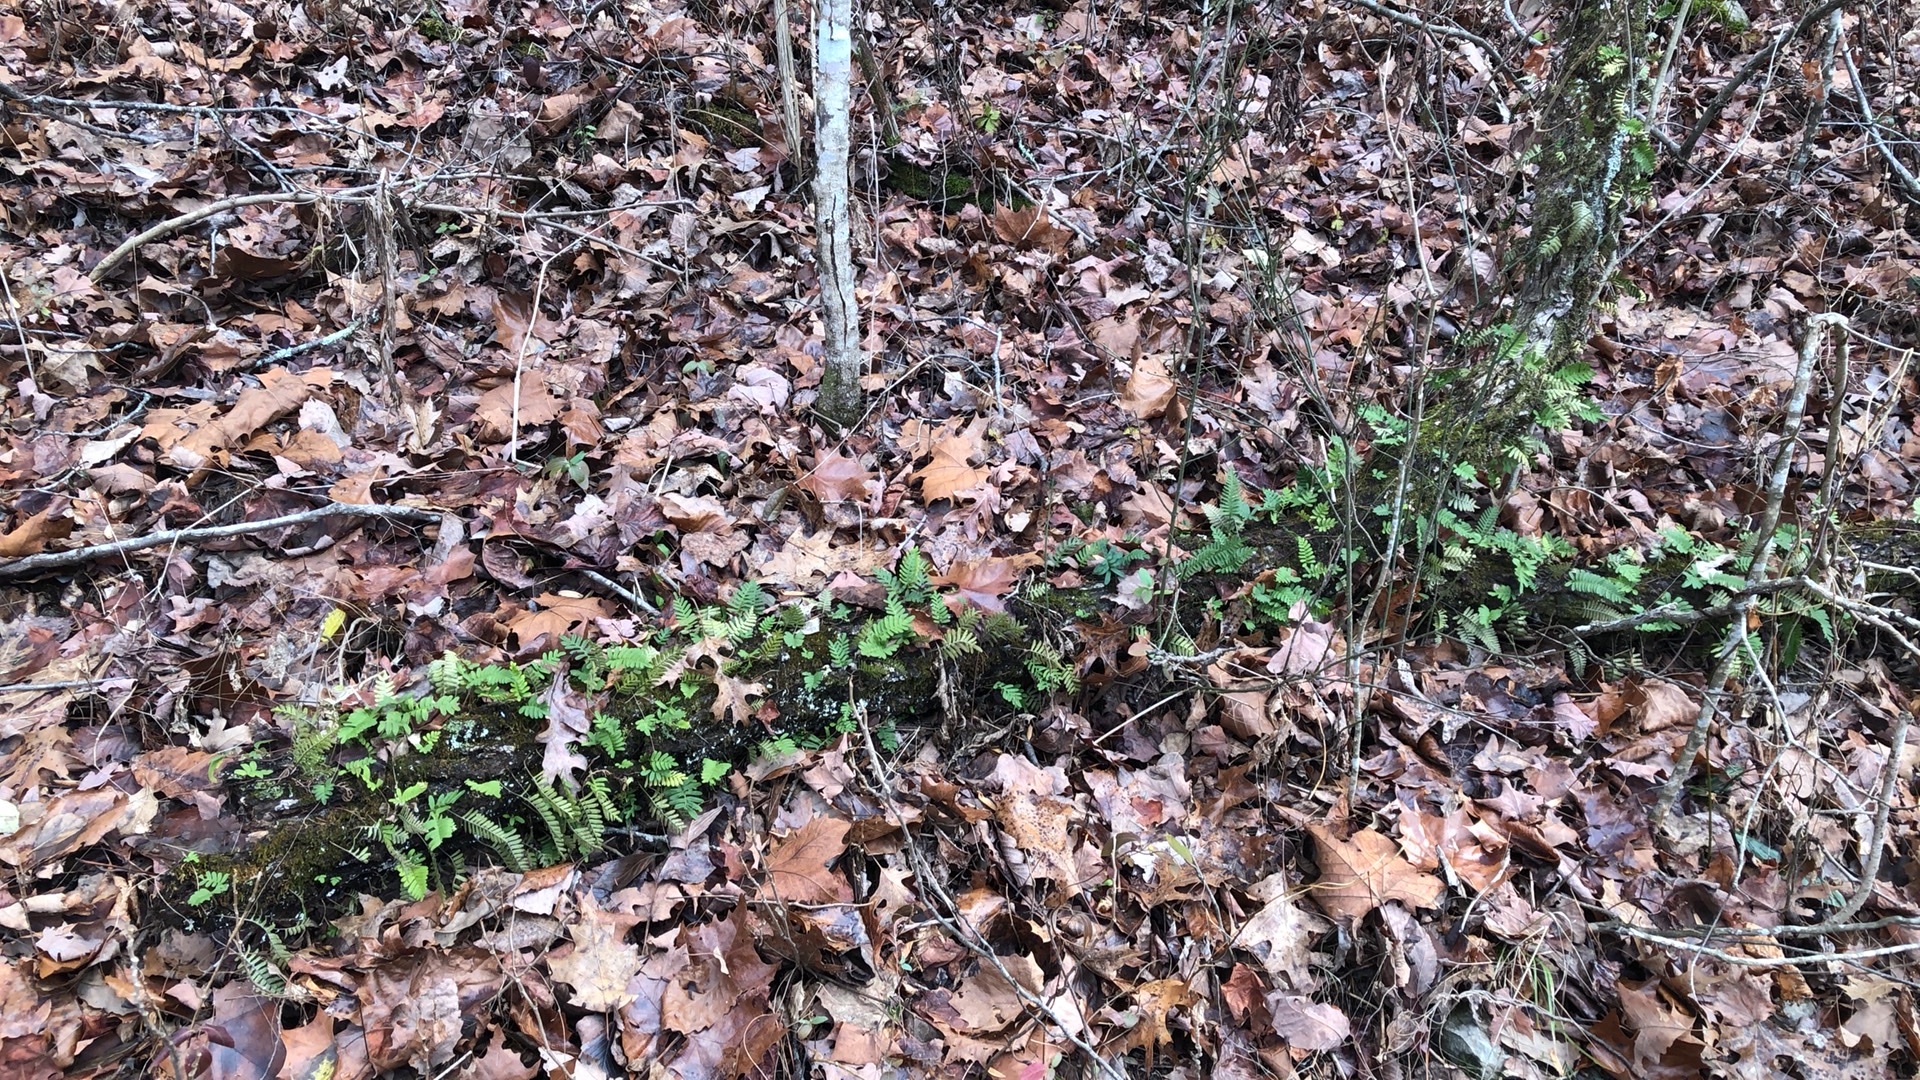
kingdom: Plantae
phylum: Tracheophyta
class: Polypodiopsida
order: Polypodiales
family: Polypodiaceae
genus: Pleopeltis
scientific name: Pleopeltis michauxiana
